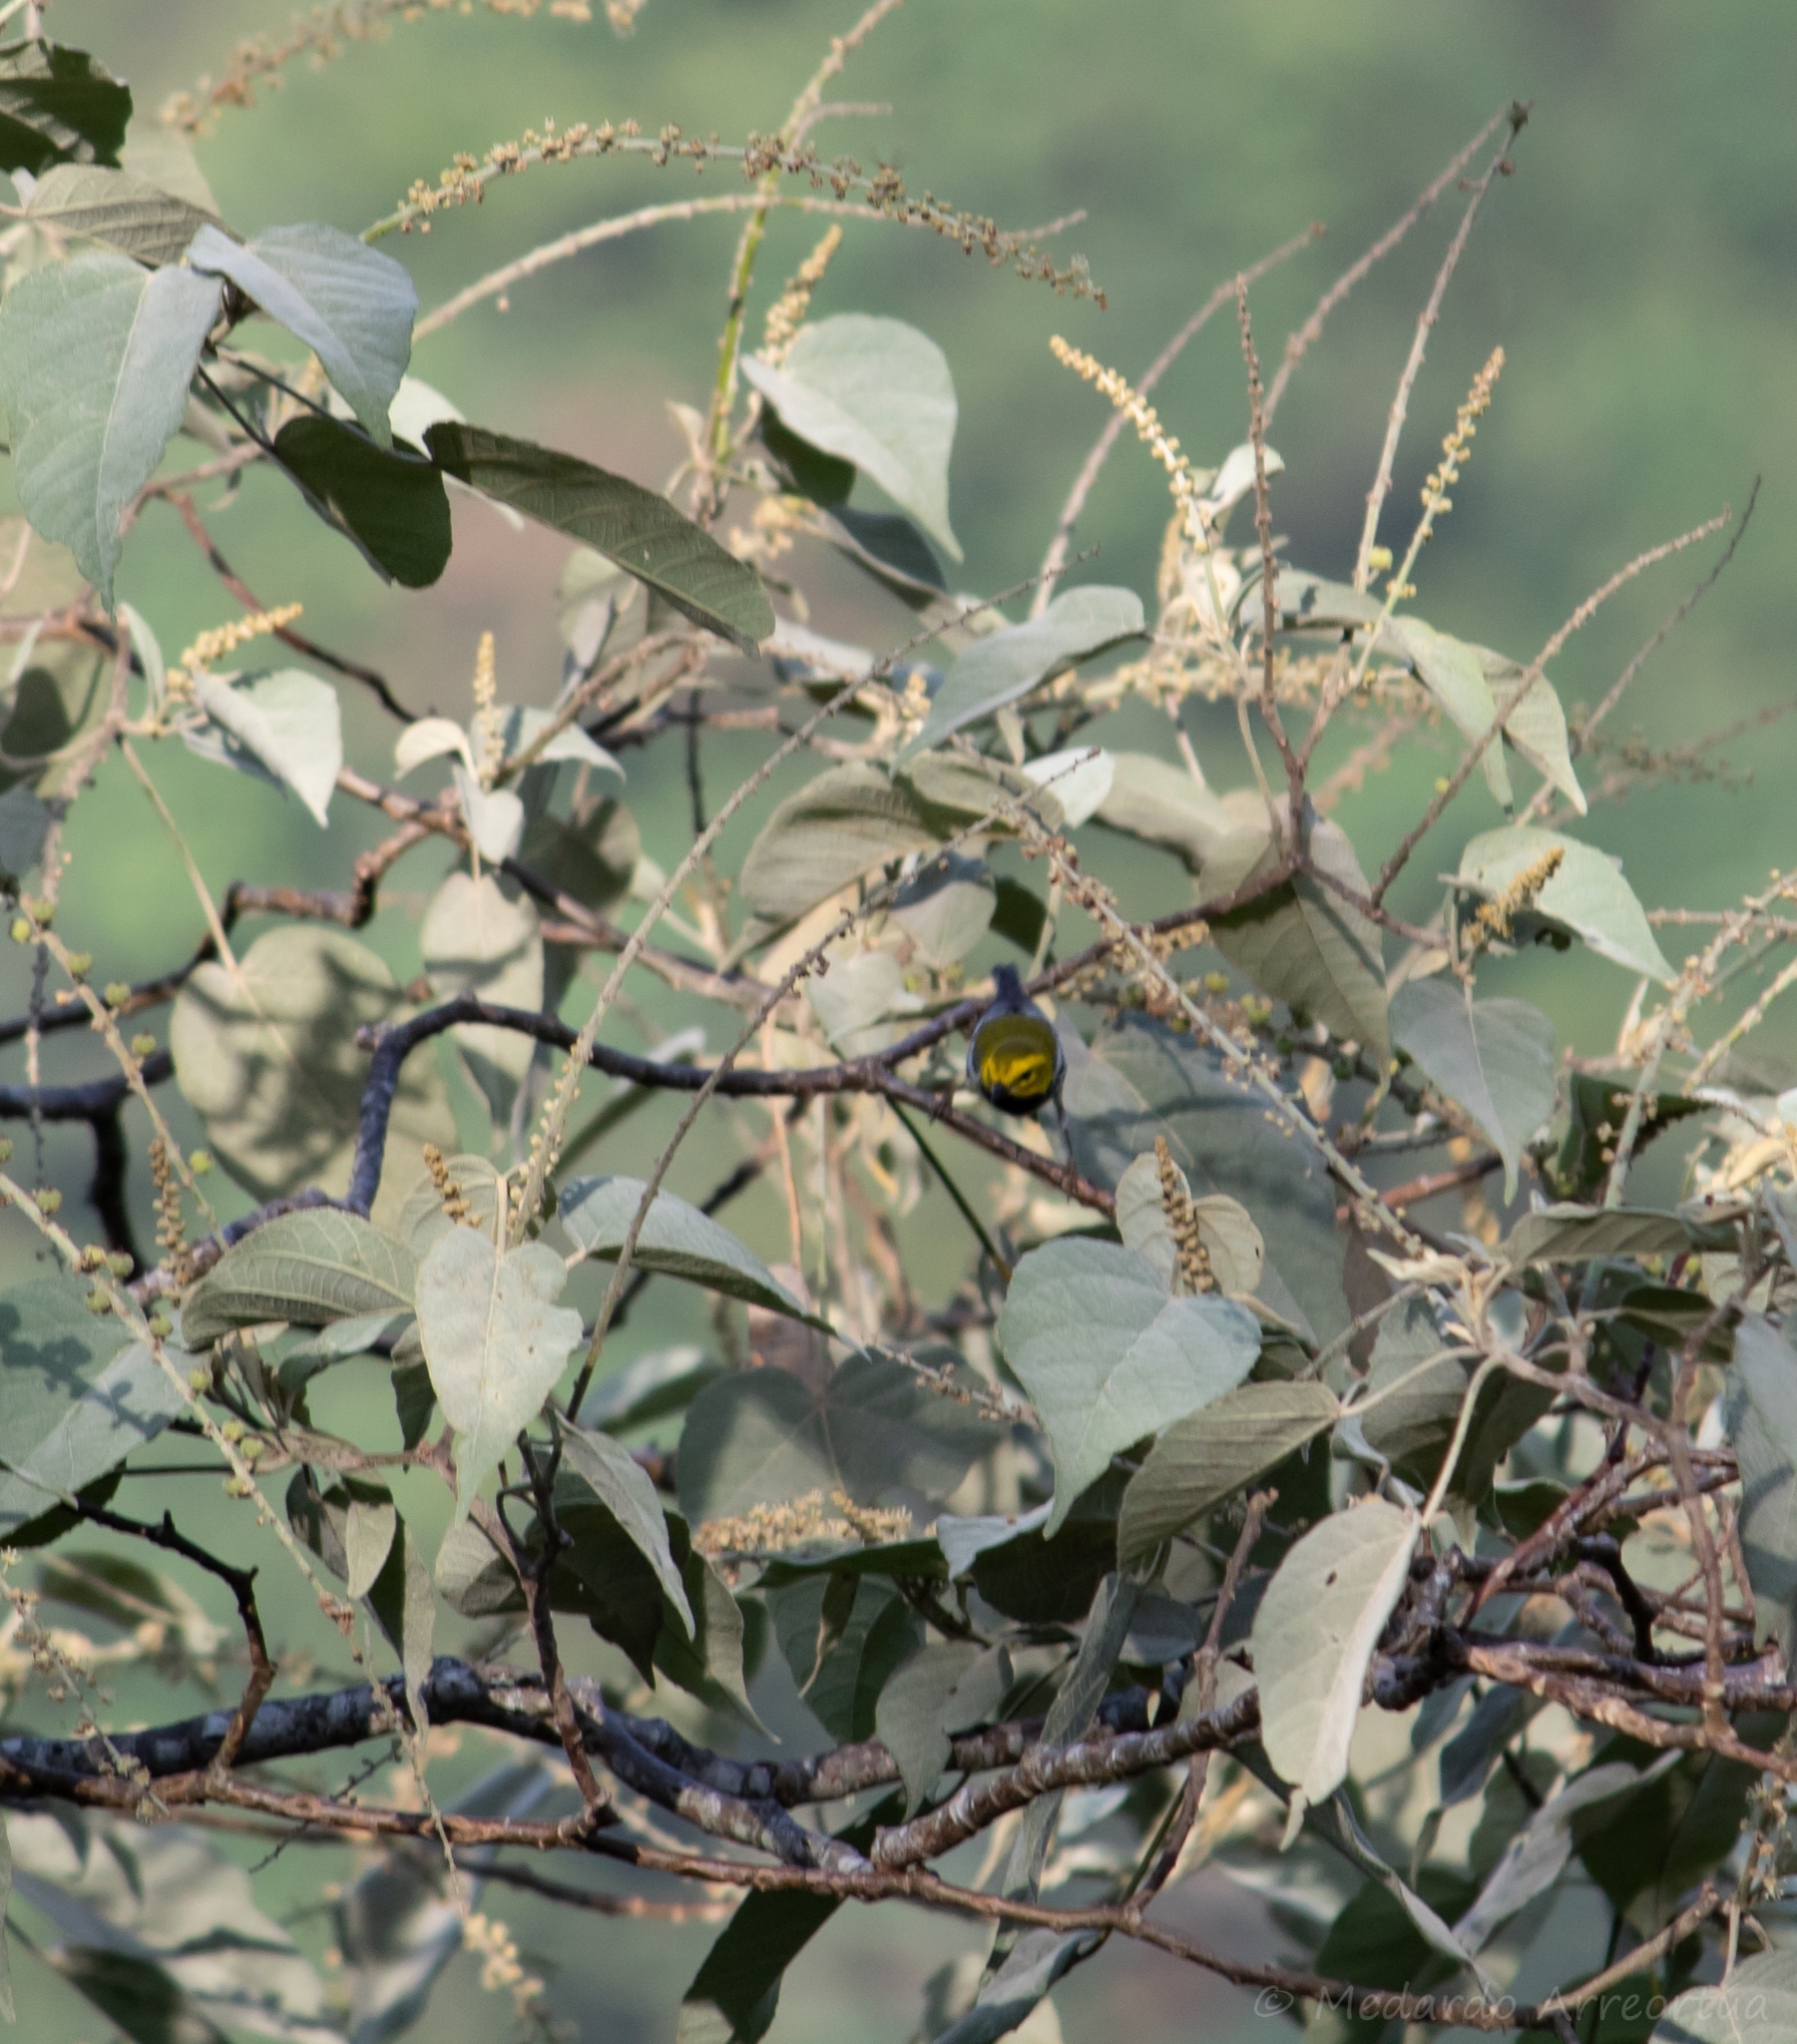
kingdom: Animalia
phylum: Chordata
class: Aves
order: Passeriformes
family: Parulidae
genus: Setophaga
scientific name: Setophaga virens
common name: Black-throated green warbler
